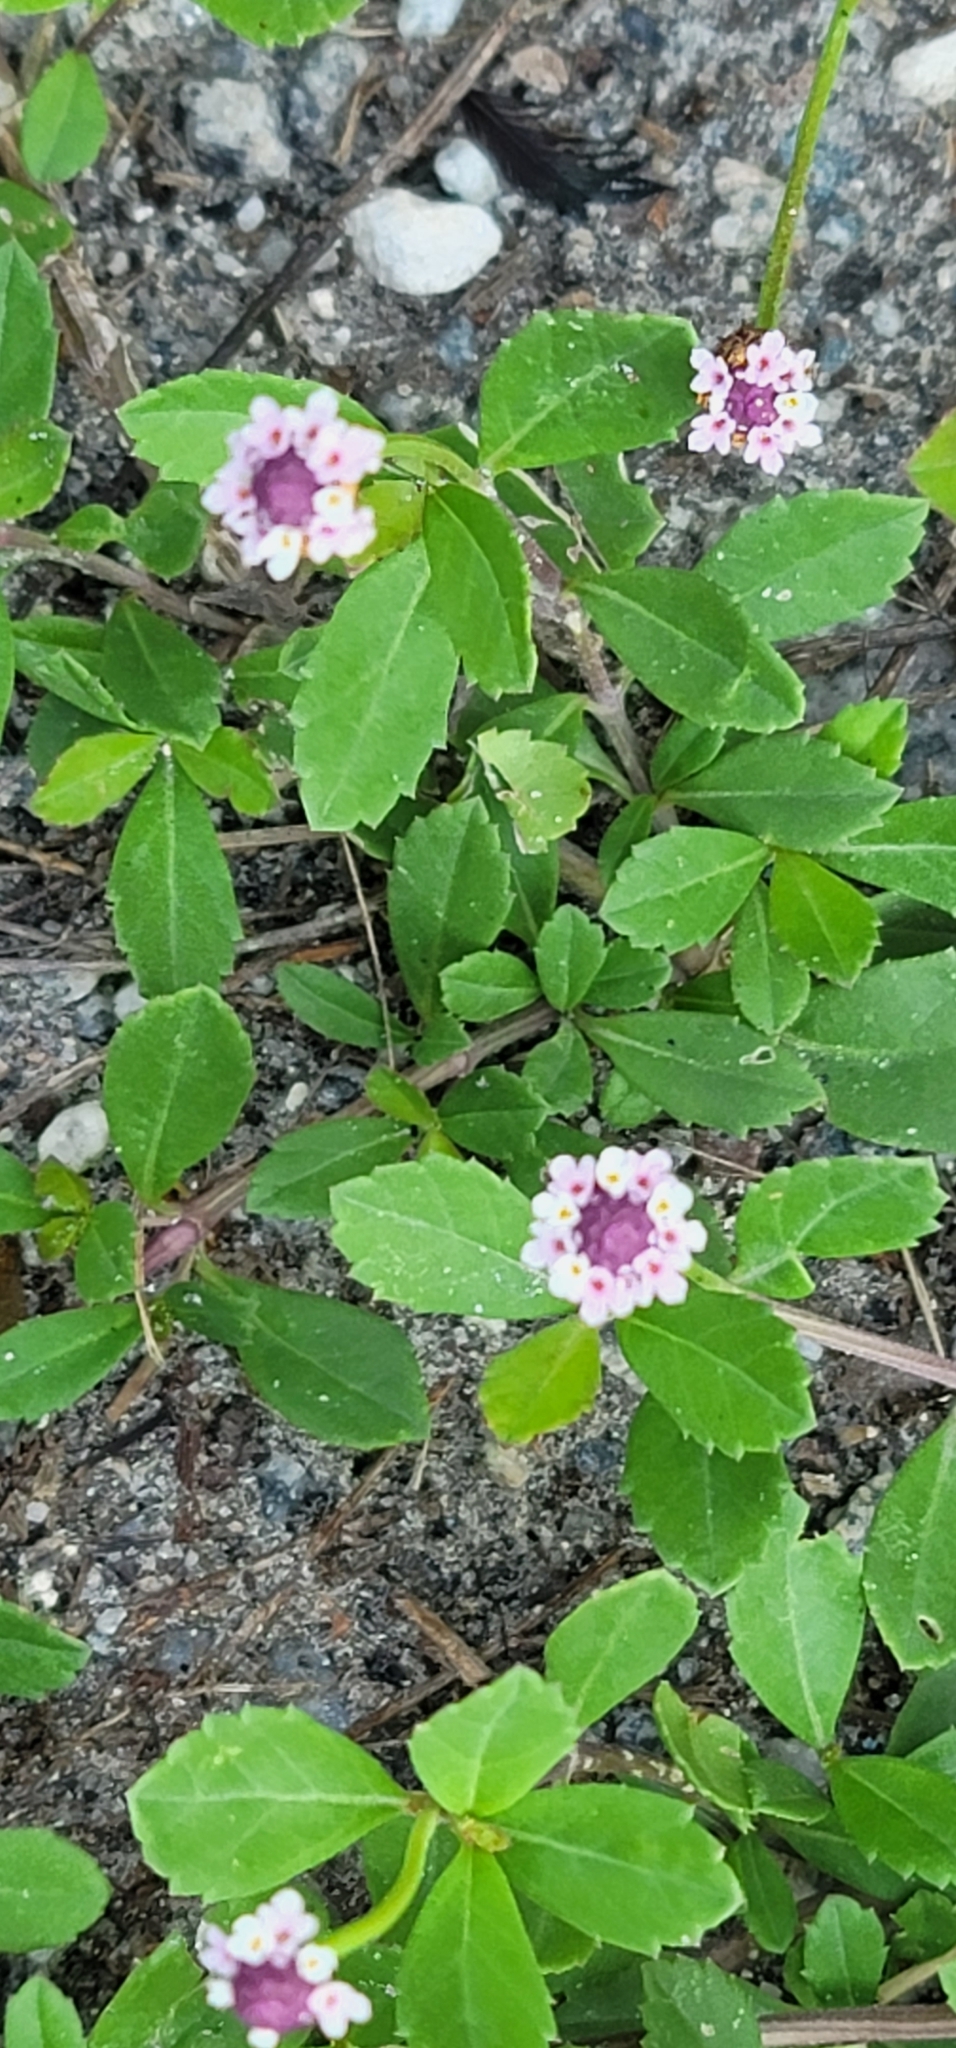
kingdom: Plantae
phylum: Tracheophyta
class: Magnoliopsida
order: Lamiales
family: Verbenaceae
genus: Phyla
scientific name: Phyla nodiflora
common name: Frogfruit
